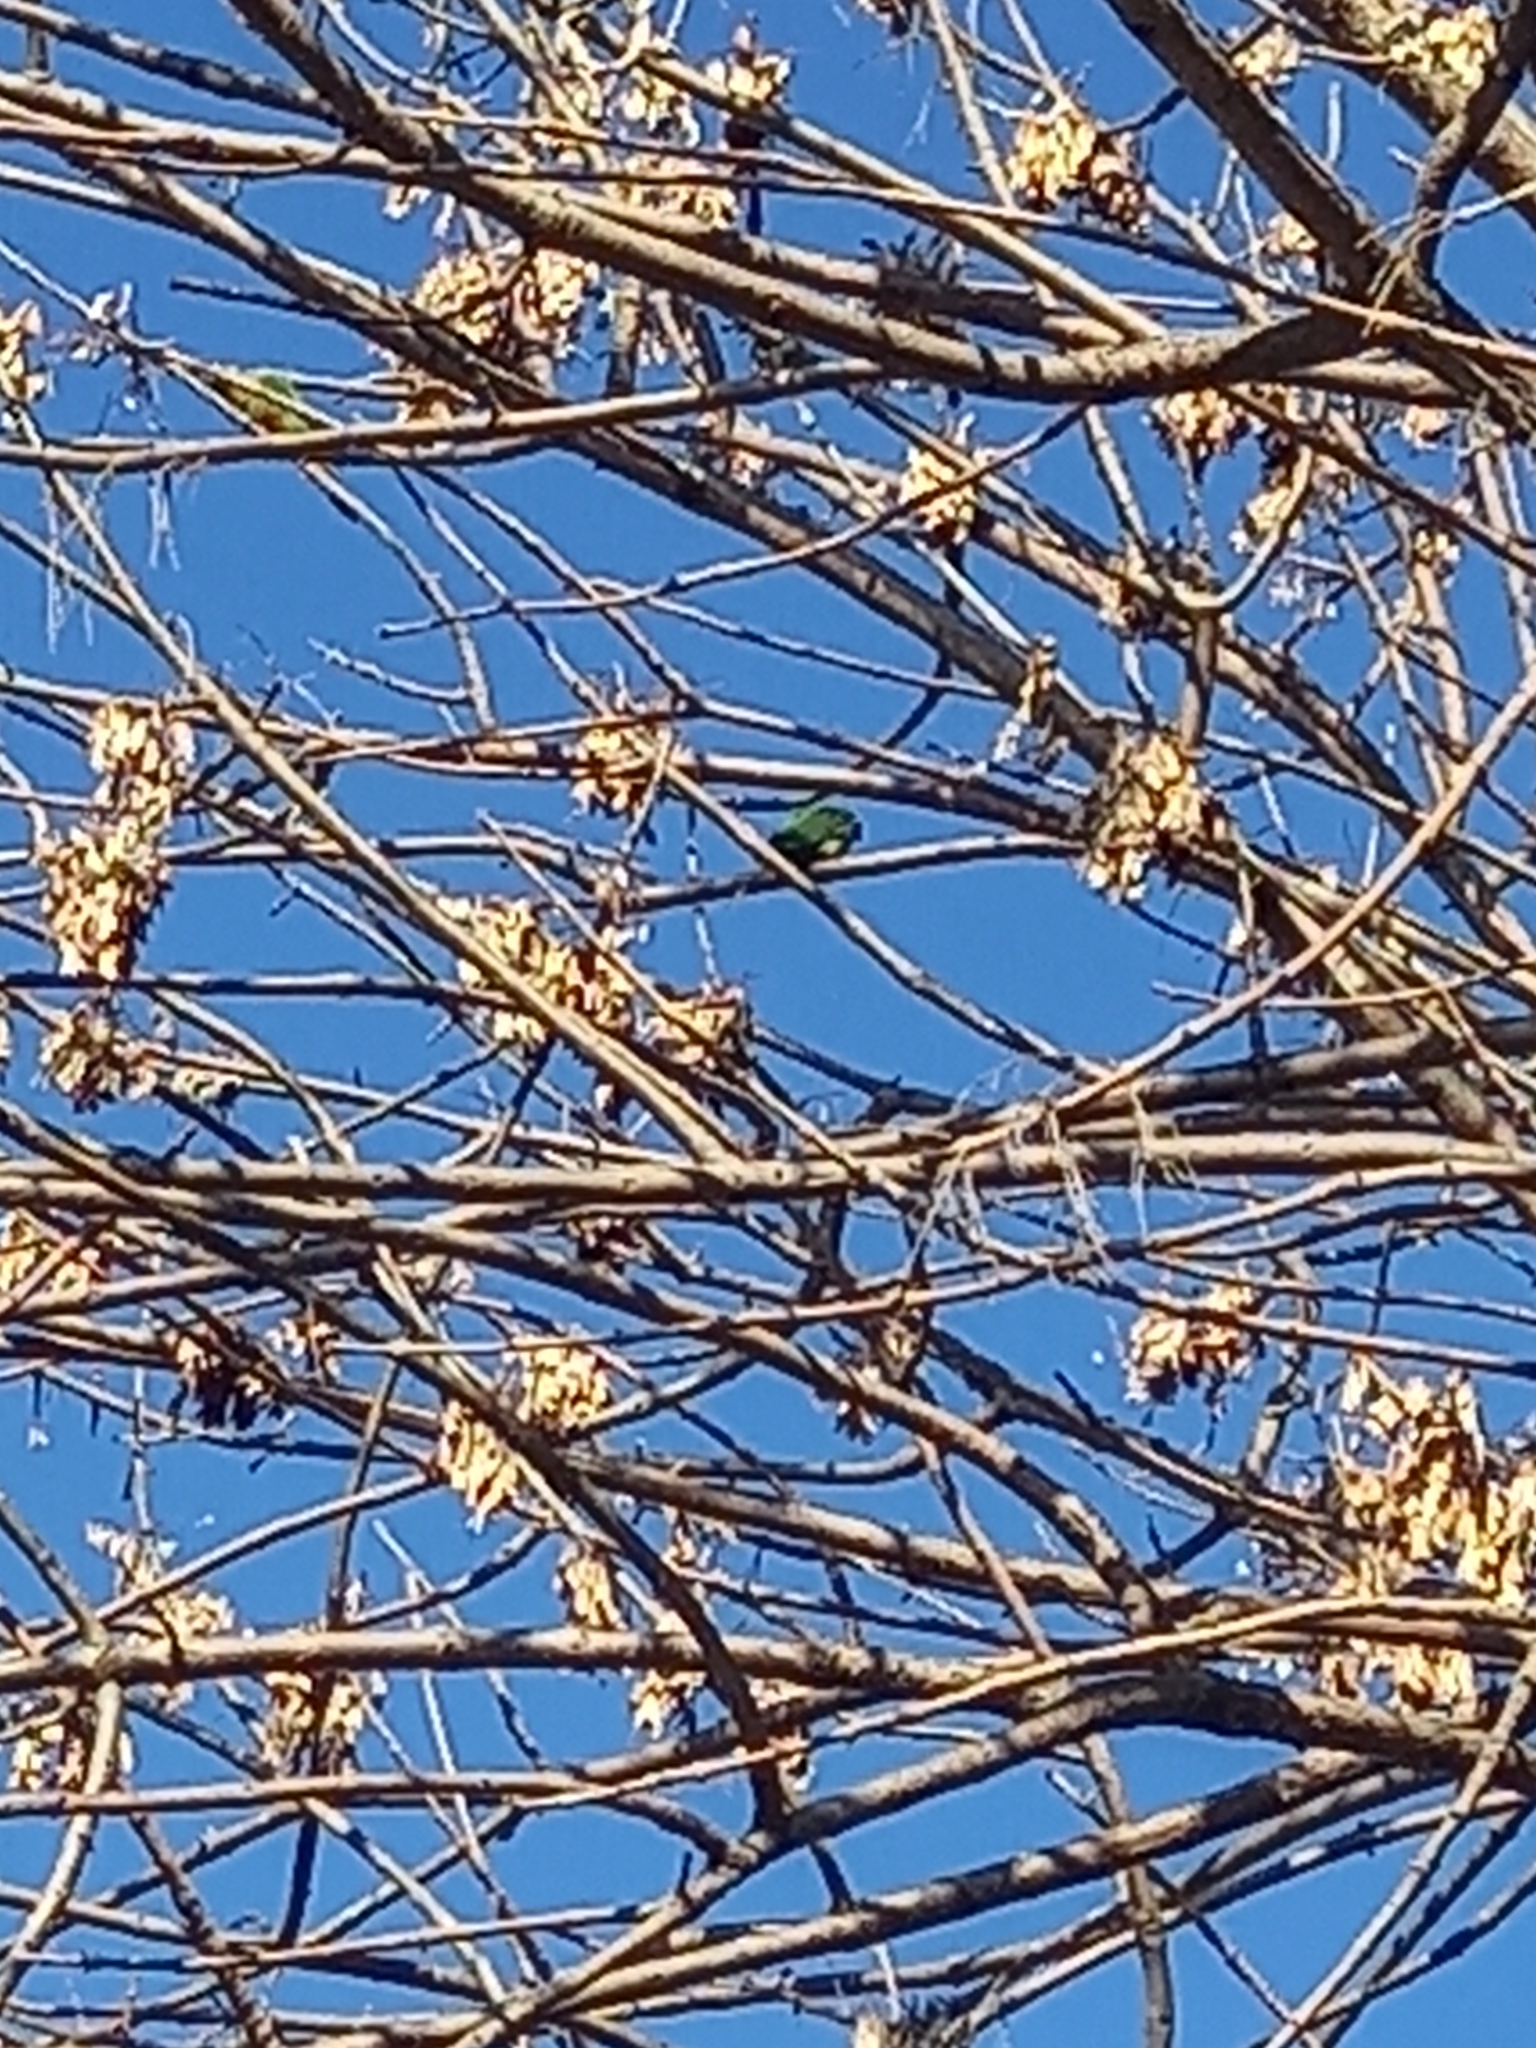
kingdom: Animalia
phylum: Chordata
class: Aves
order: Psittaciformes
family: Psittacidae
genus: Pyrrhura
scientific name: Pyrrhura frontalis
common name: Maroon-bellied parakeet
